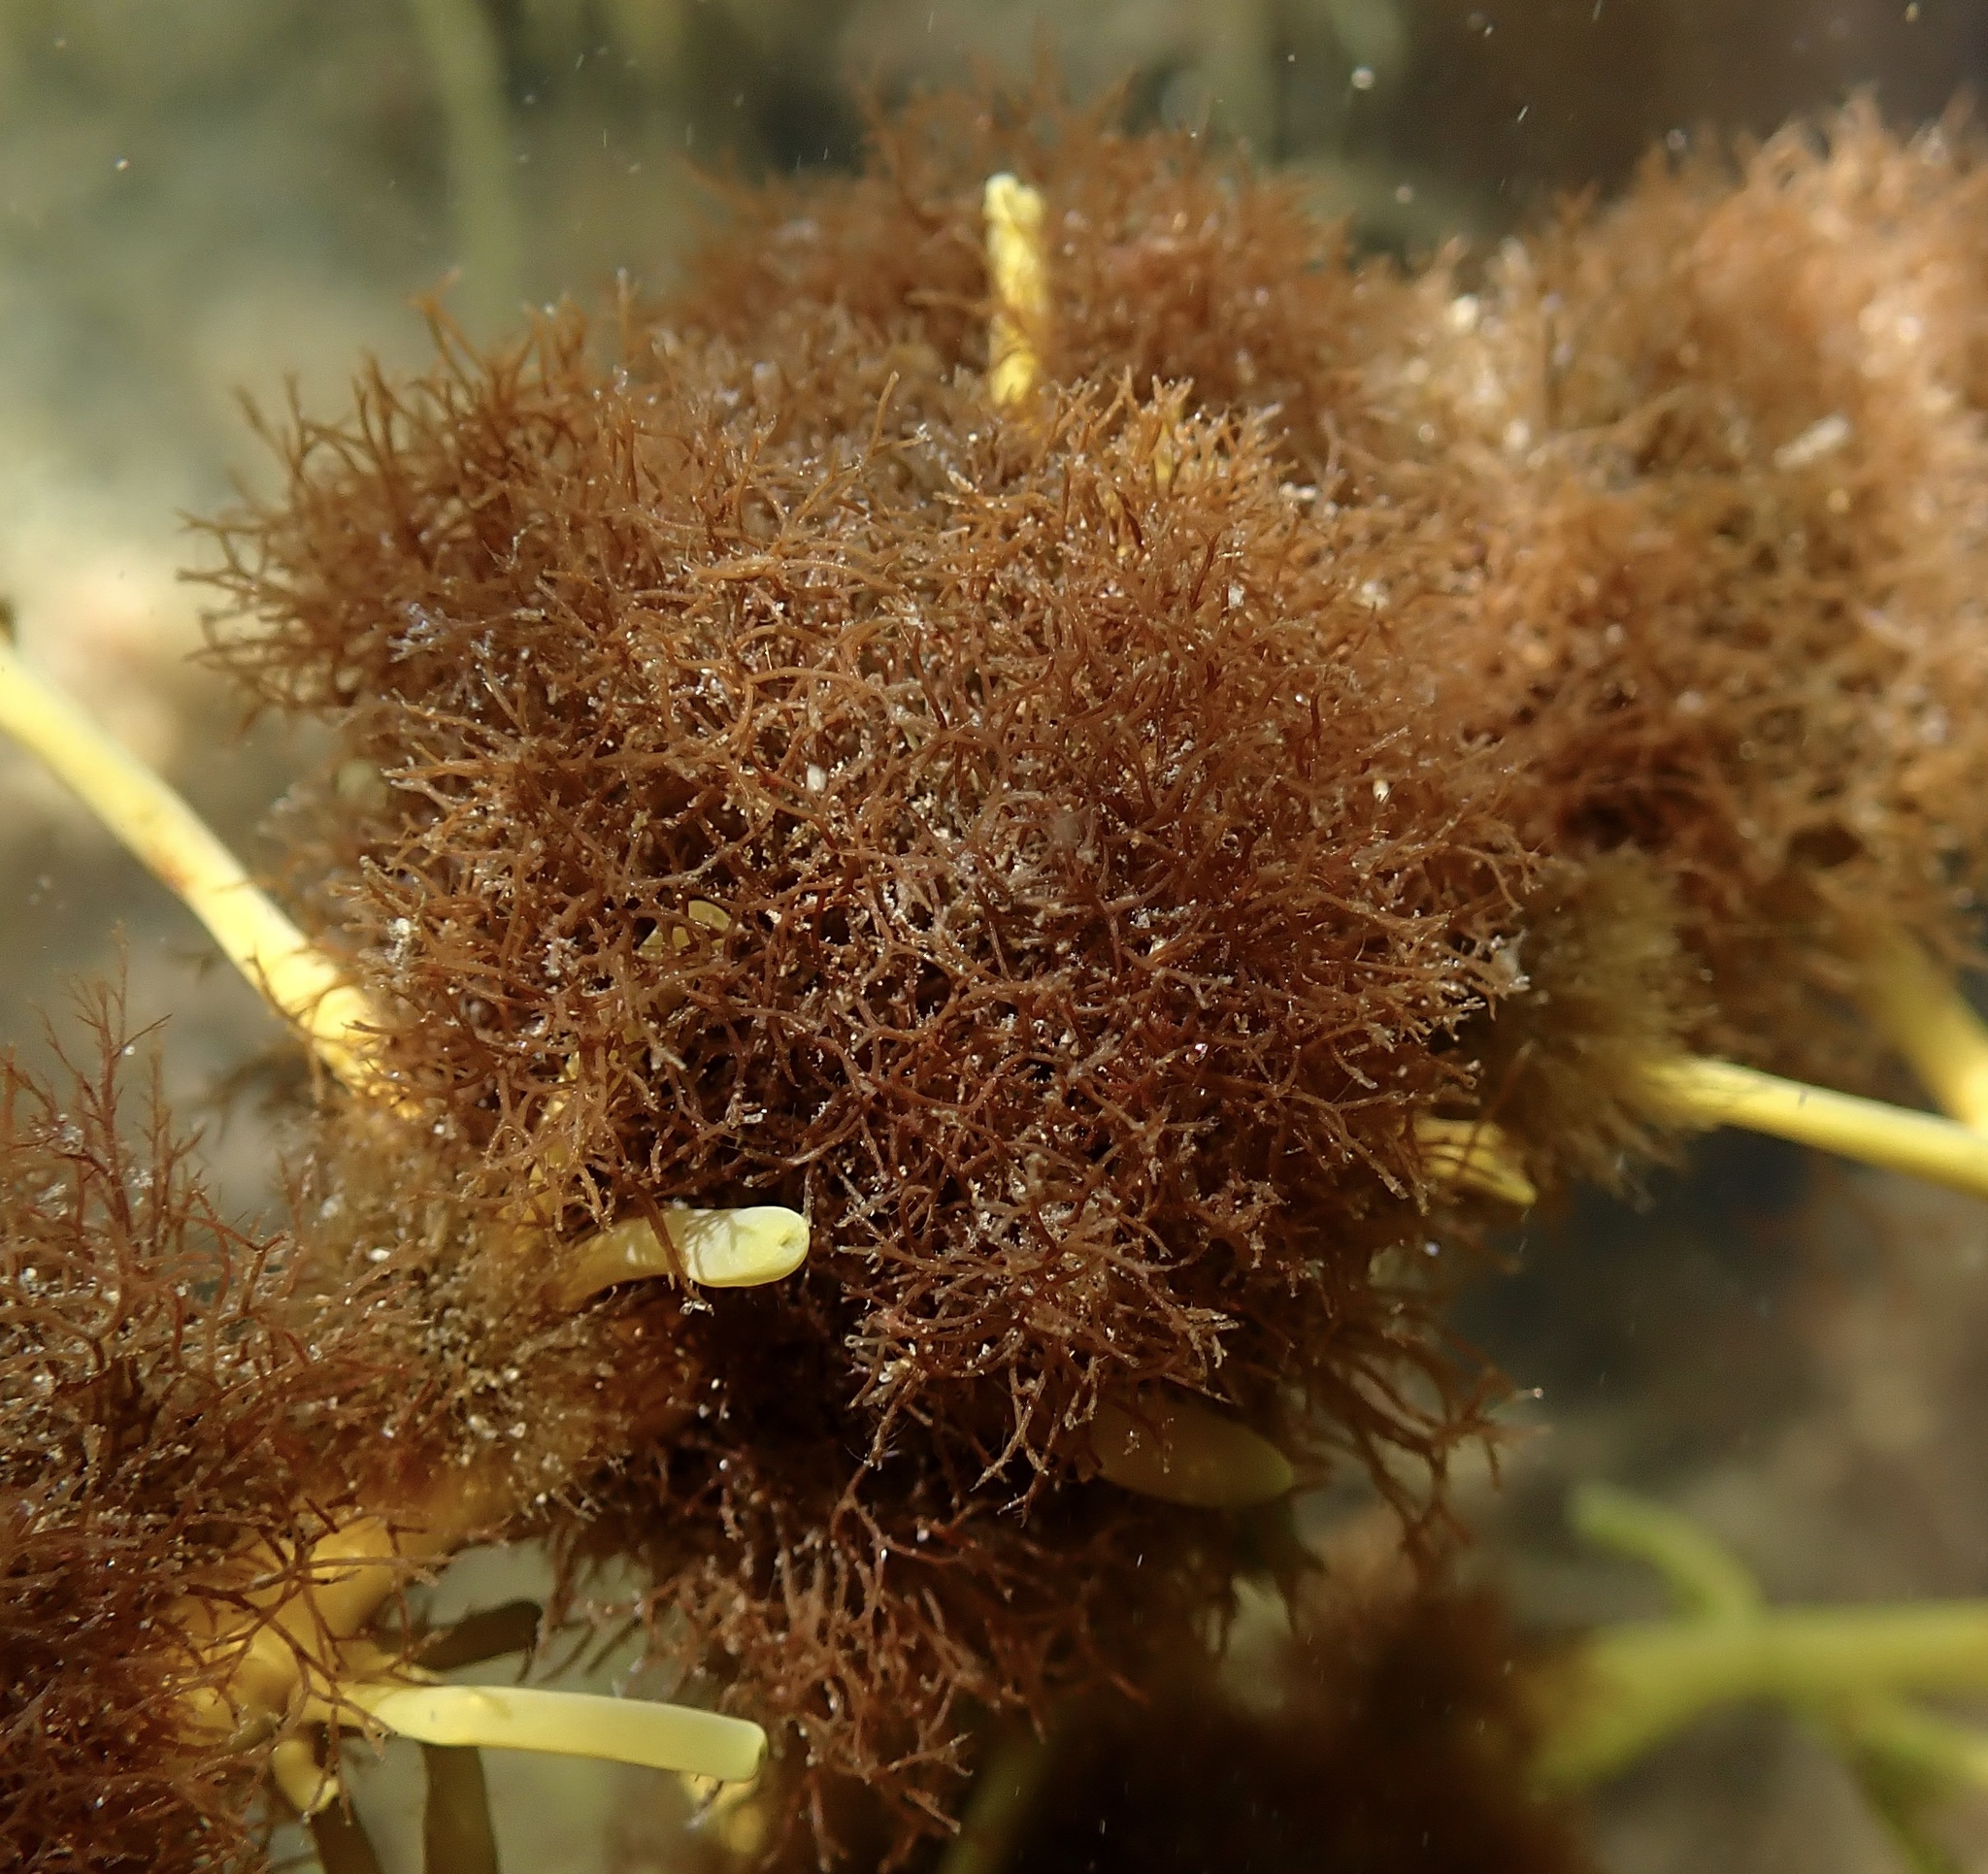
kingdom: Plantae
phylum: Rhodophyta
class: Florideophyceae
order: Ceramiales
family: Rhodomelaceae
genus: Vertebrata
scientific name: Vertebrata lanosa
